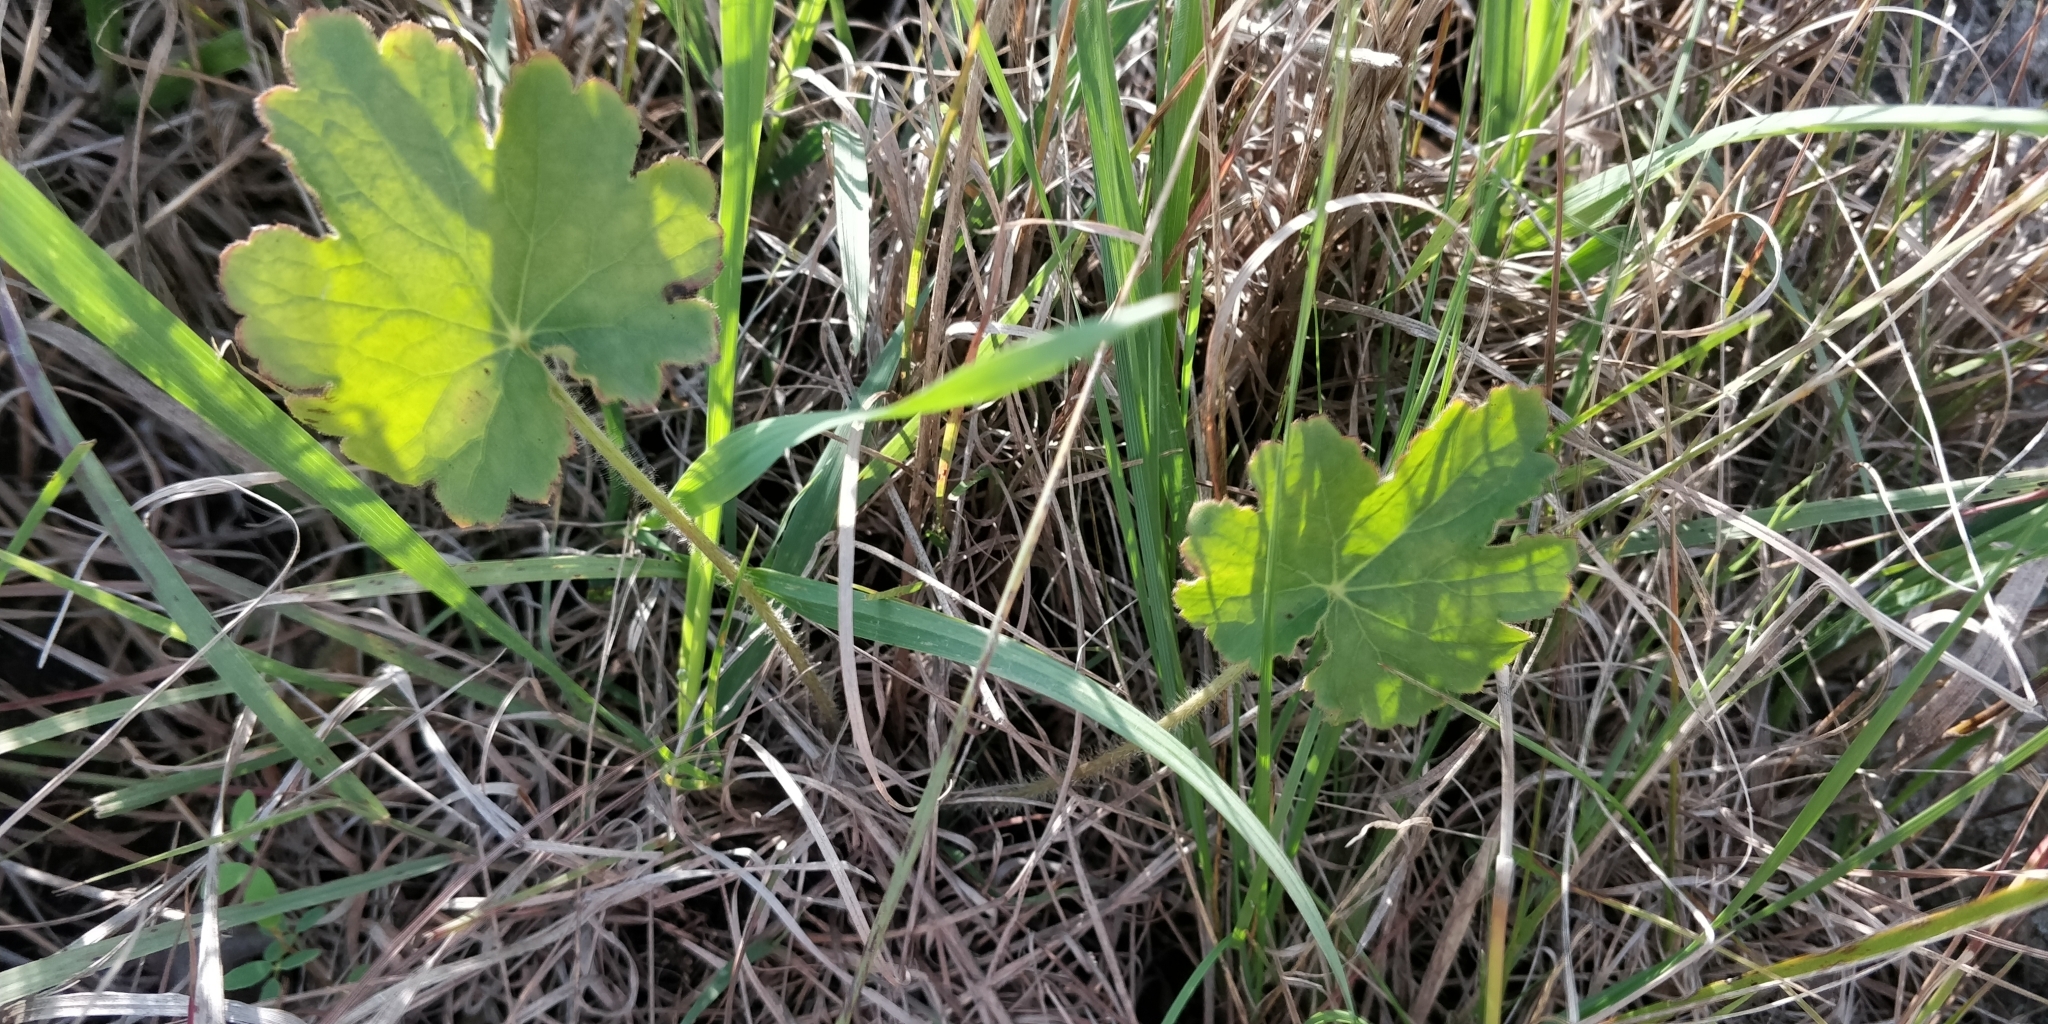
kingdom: Plantae
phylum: Tracheophyta
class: Magnoliopsida
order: Saxifragales
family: Saxifragaceae
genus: Heuchera
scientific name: Heuchera richardsonii
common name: Richardson's alumroot
